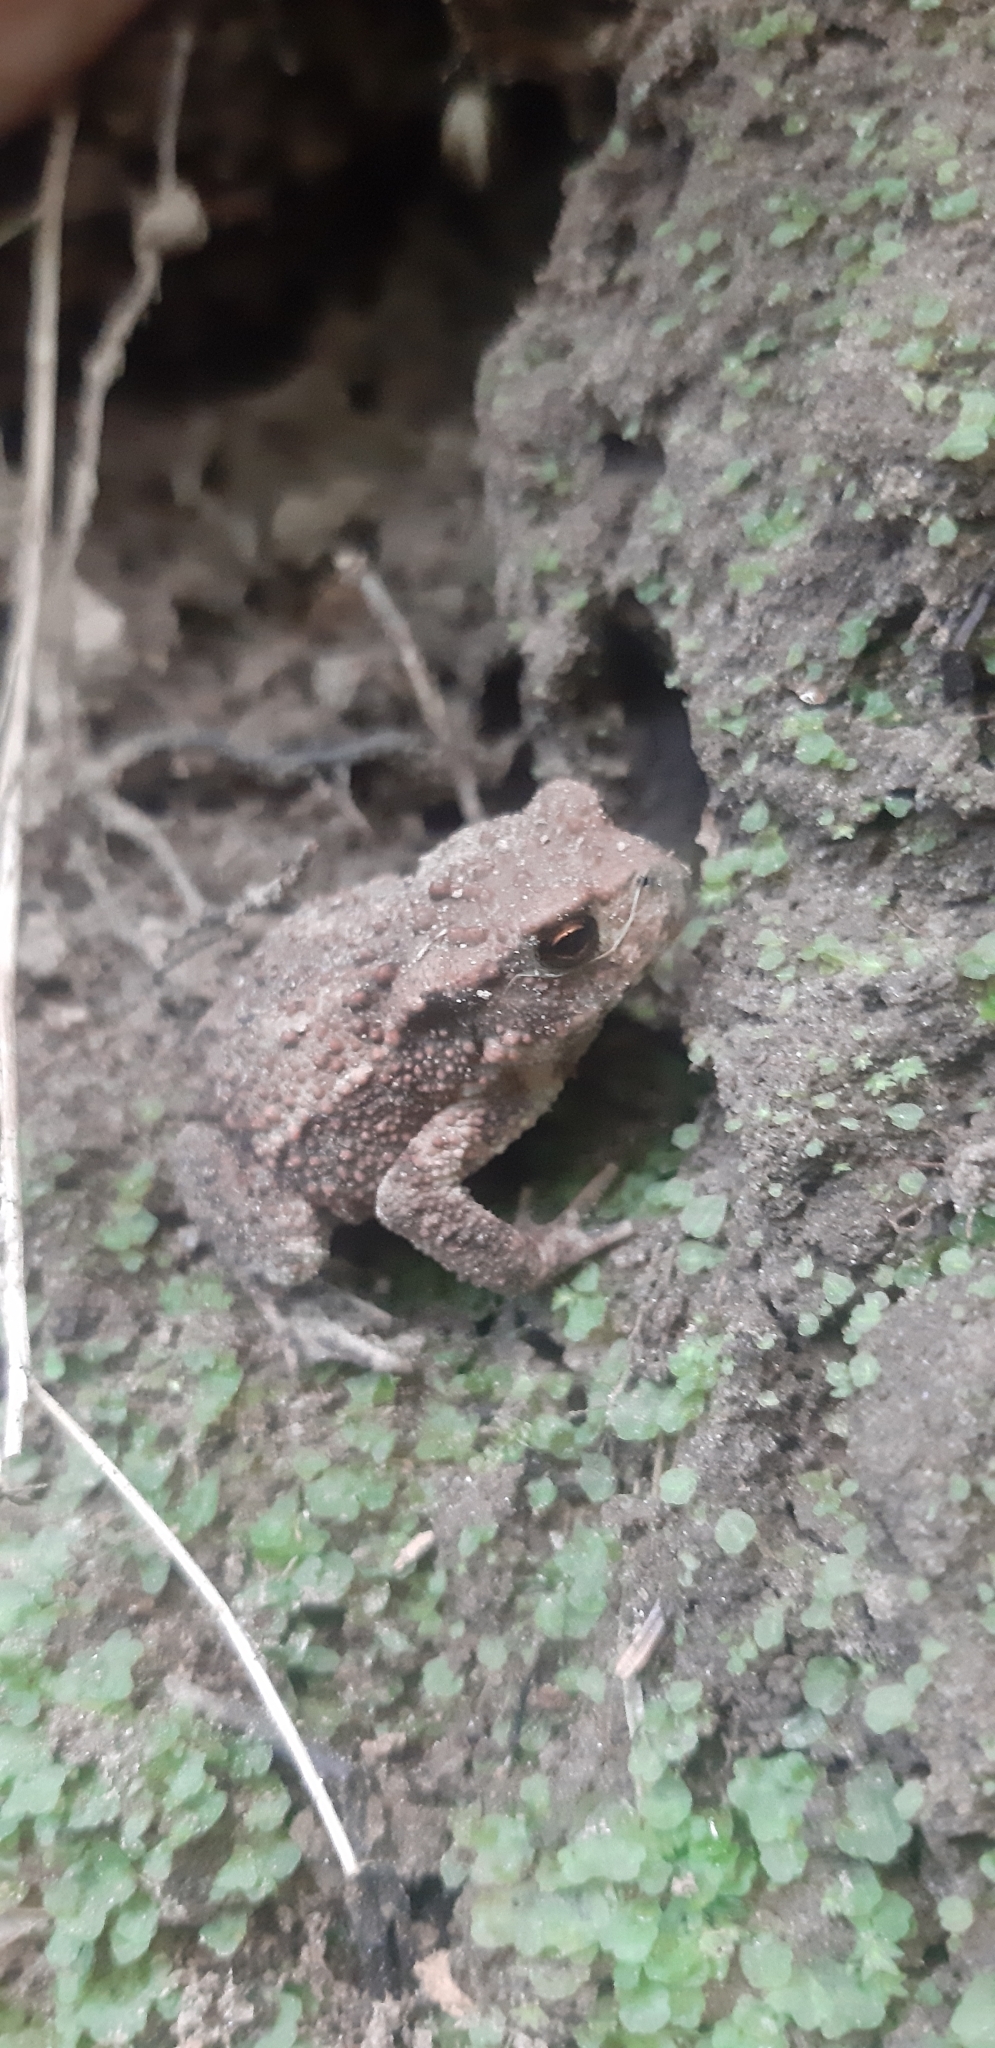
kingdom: Animalia
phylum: Chordata
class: Amphibia
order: Anura
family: Bufonidae
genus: Bufo
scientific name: Bufo bufo
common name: Common toad
